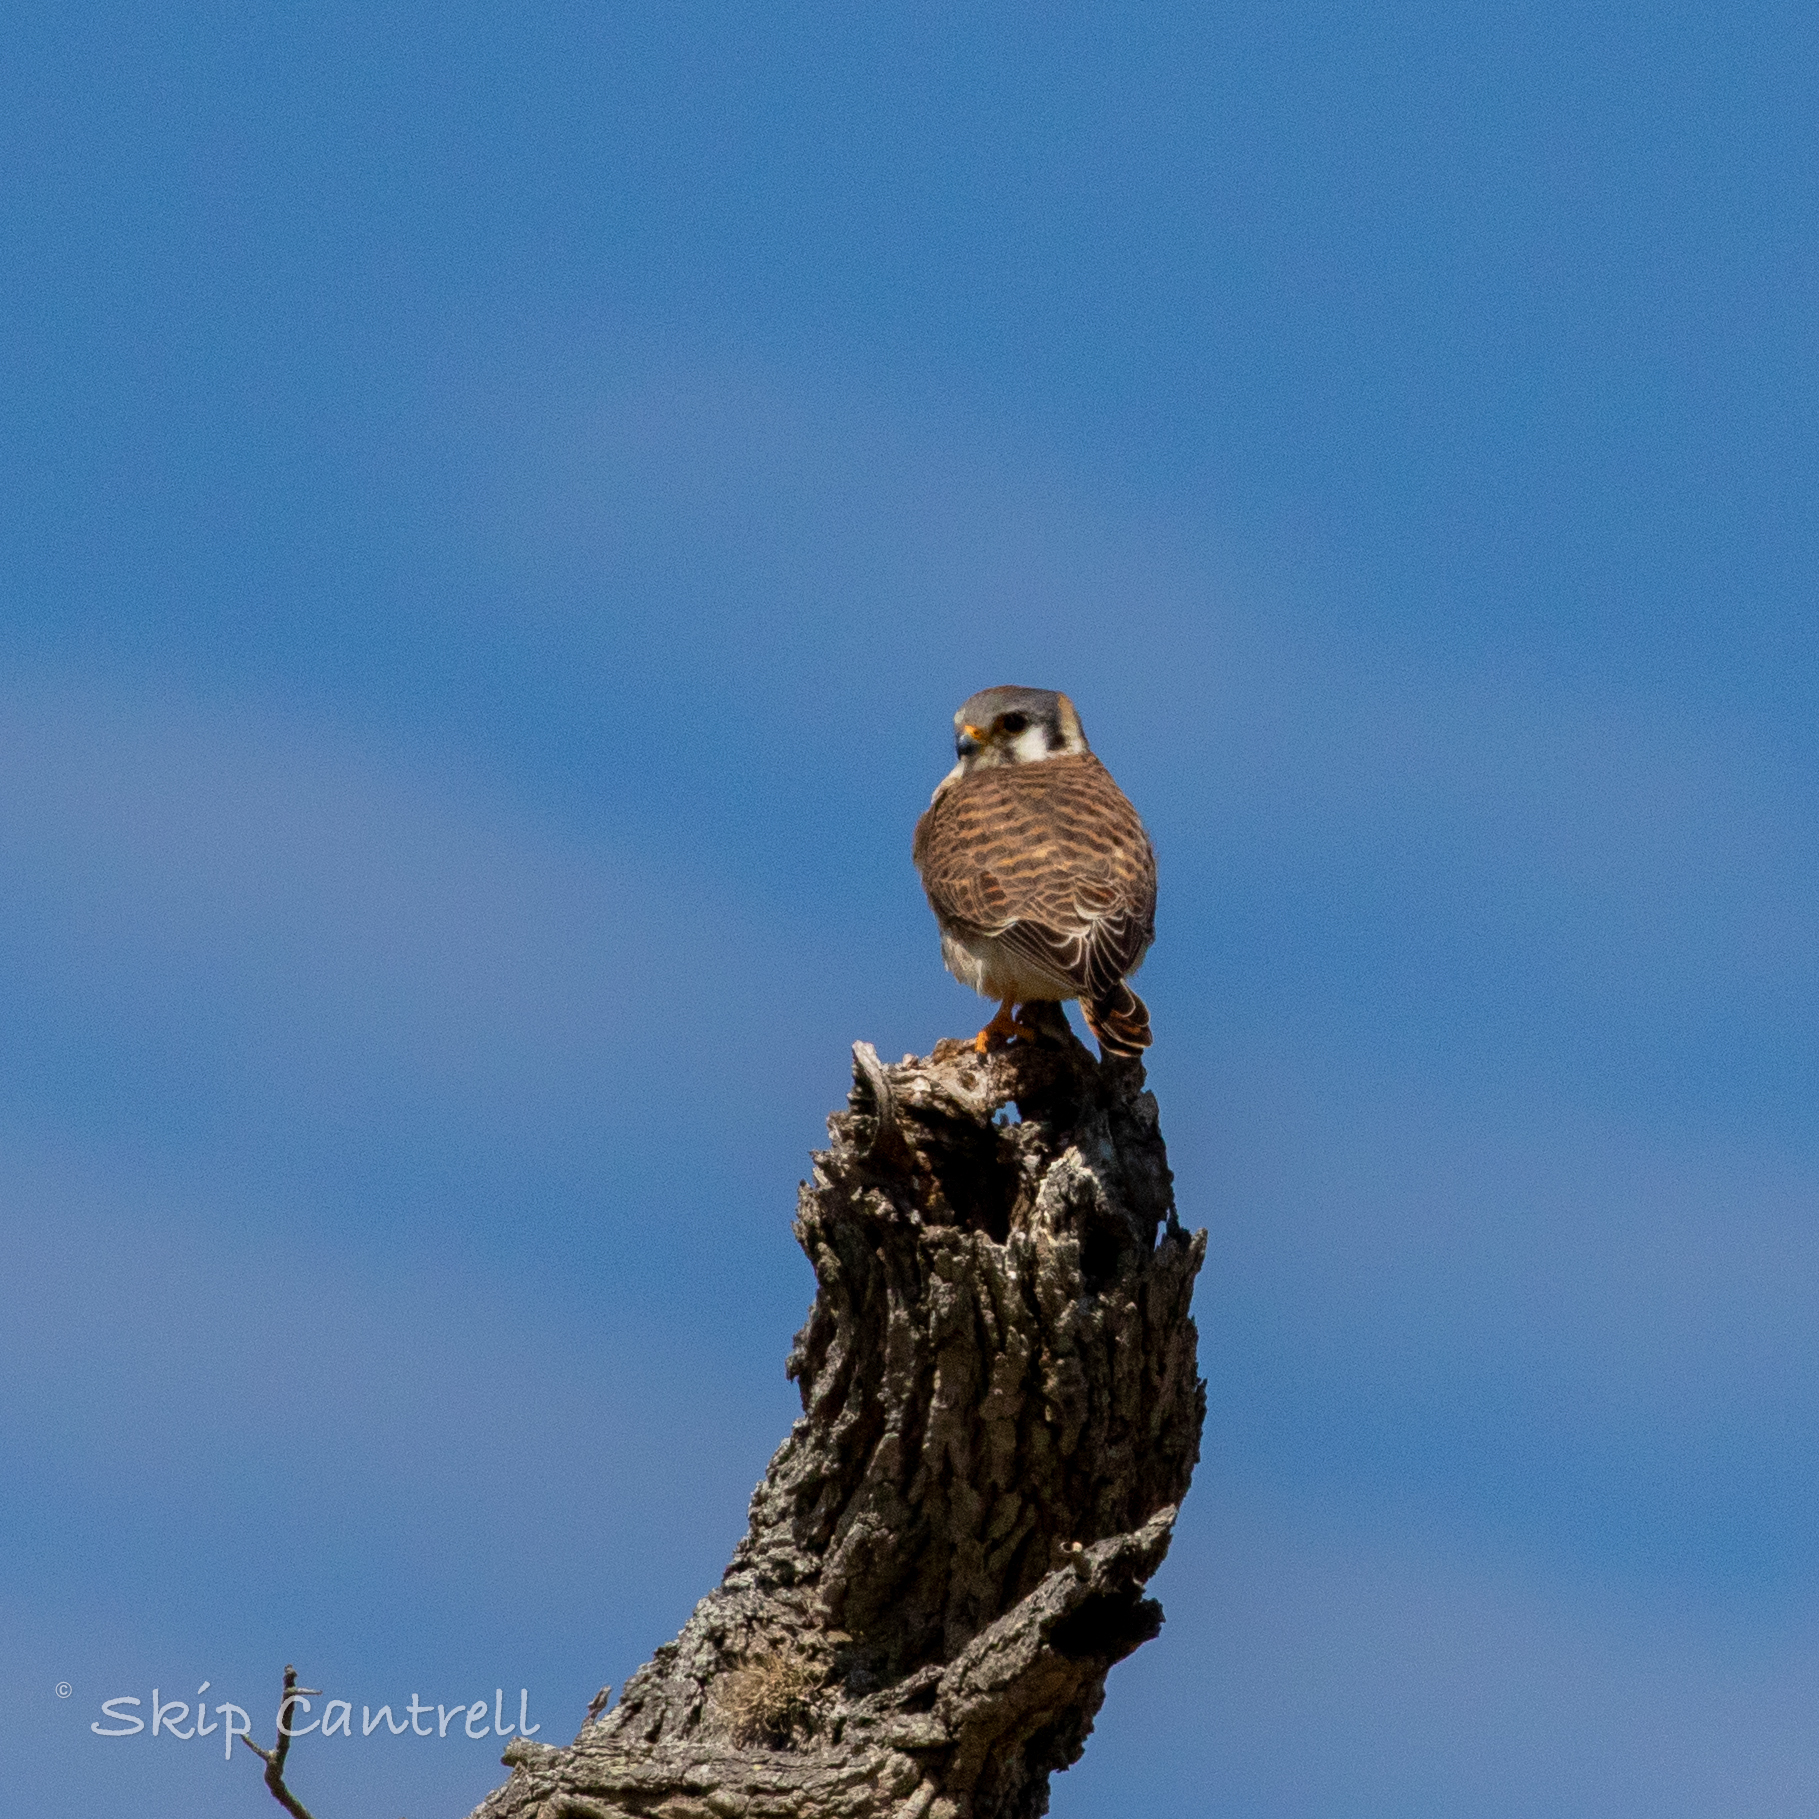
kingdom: Animalia
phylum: Chordata
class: Aves
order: Falconiformes
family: Falconidae
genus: Falco
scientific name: Falco sparverius
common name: American kestrel
